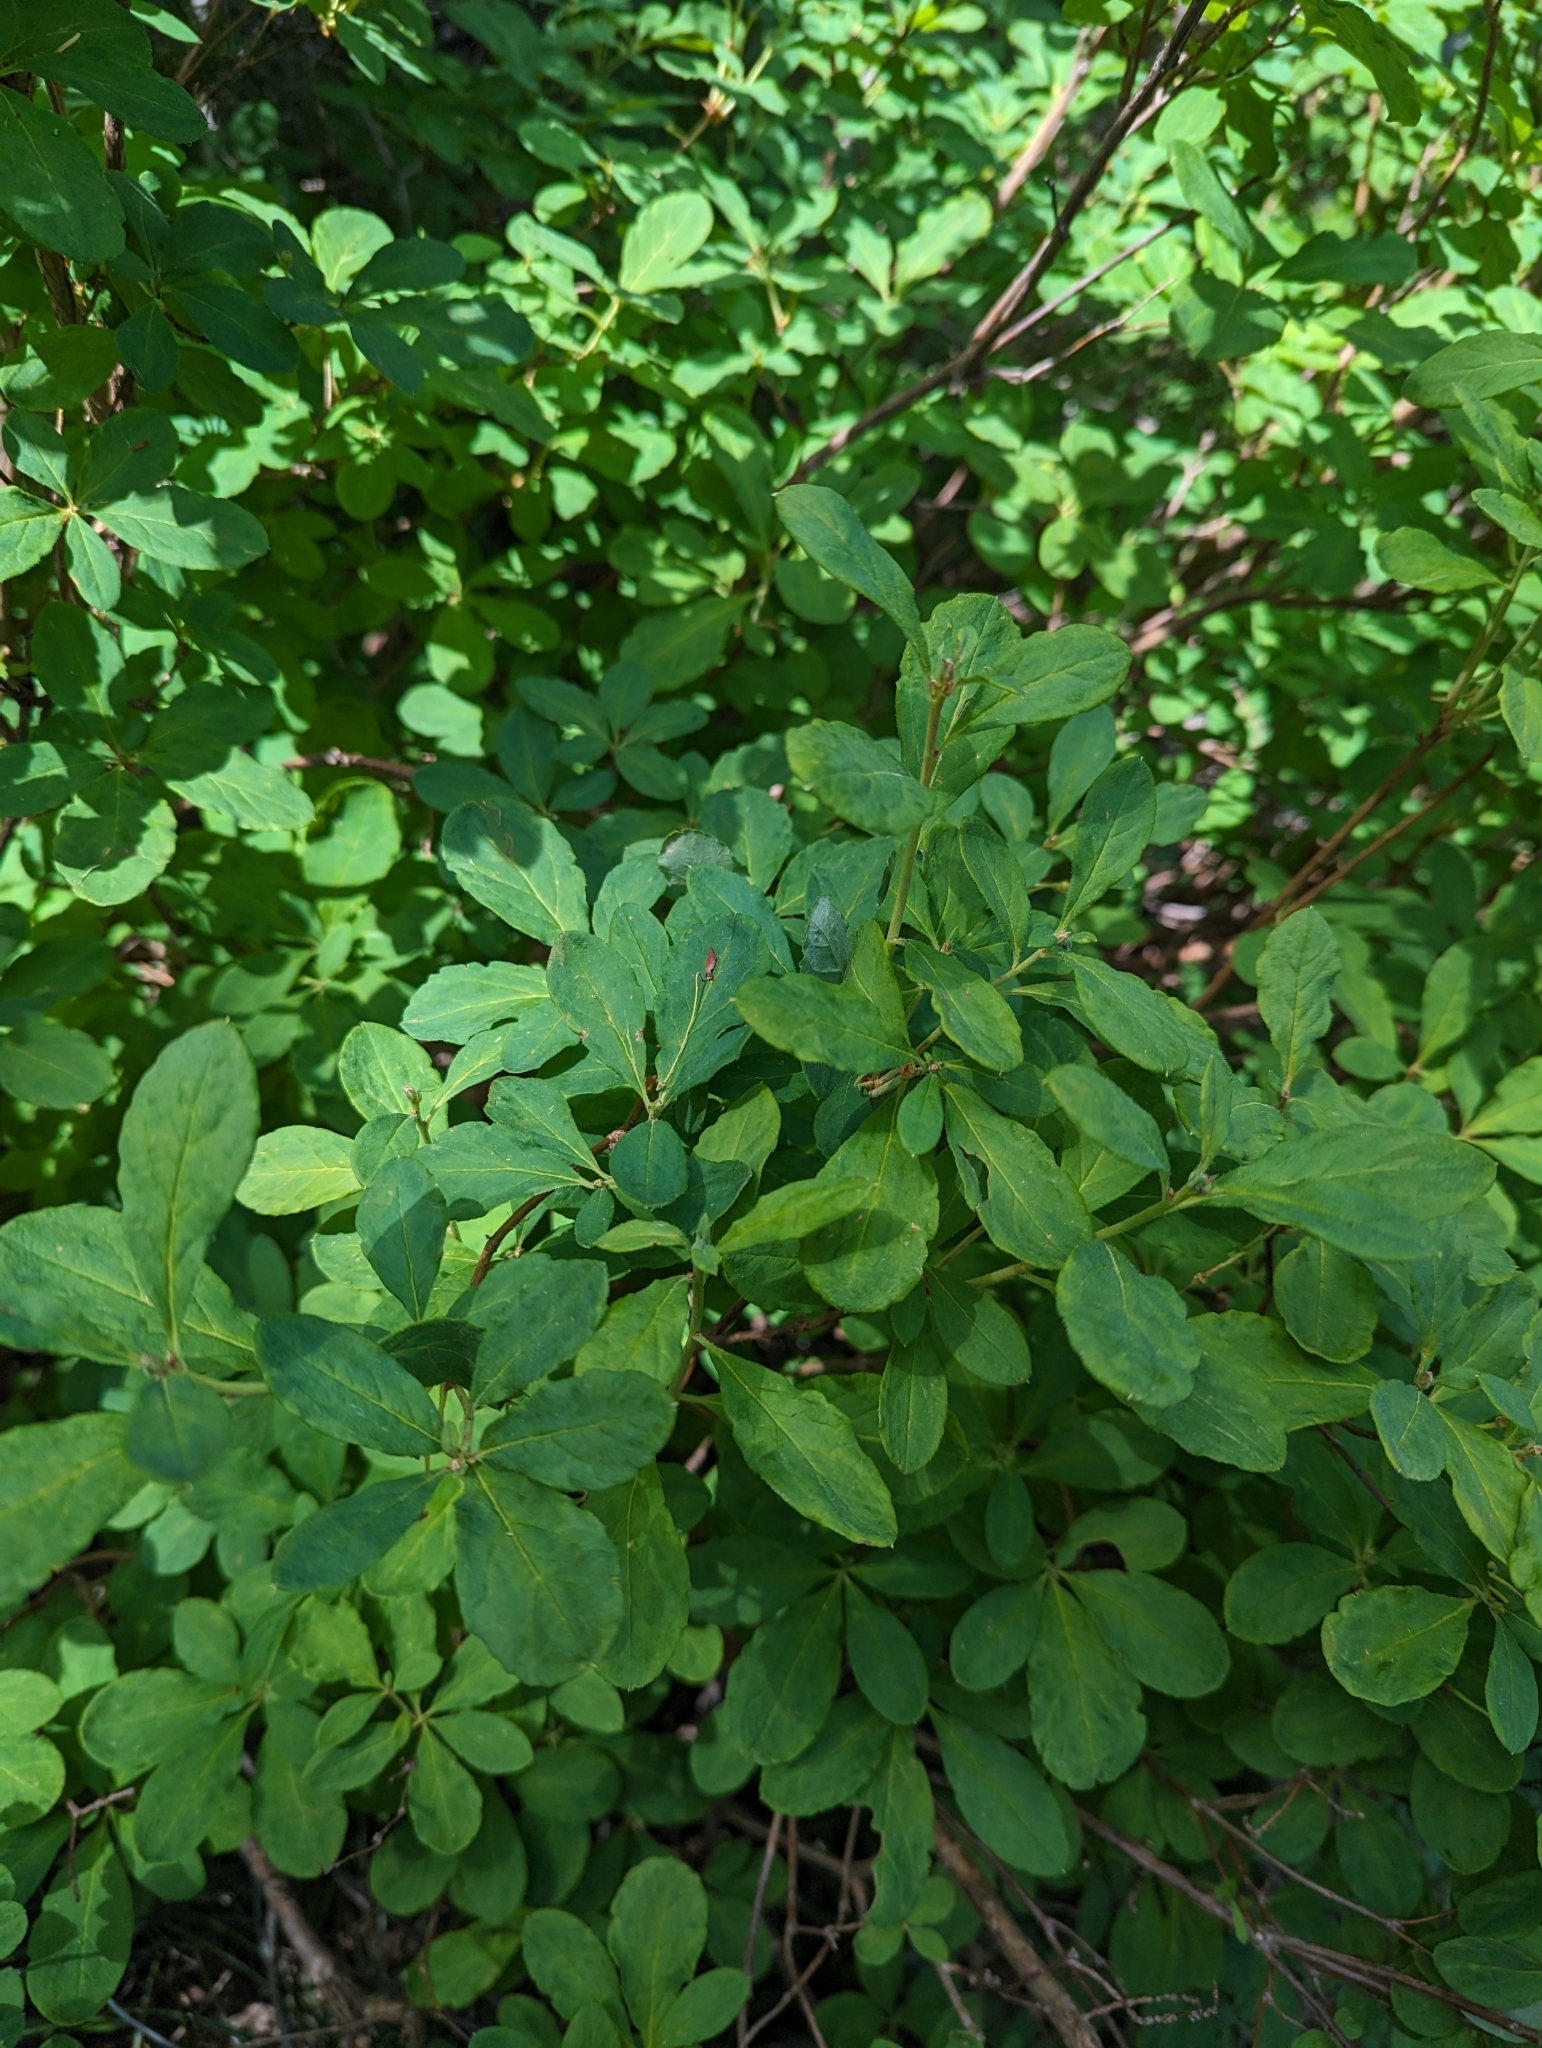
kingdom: Plantae
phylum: Tracheophyta
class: Magnoliopsida
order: Ericales
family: Ericaceae
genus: Rhododendron
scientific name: Rhododendron menziesii
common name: Pacific menziesia
